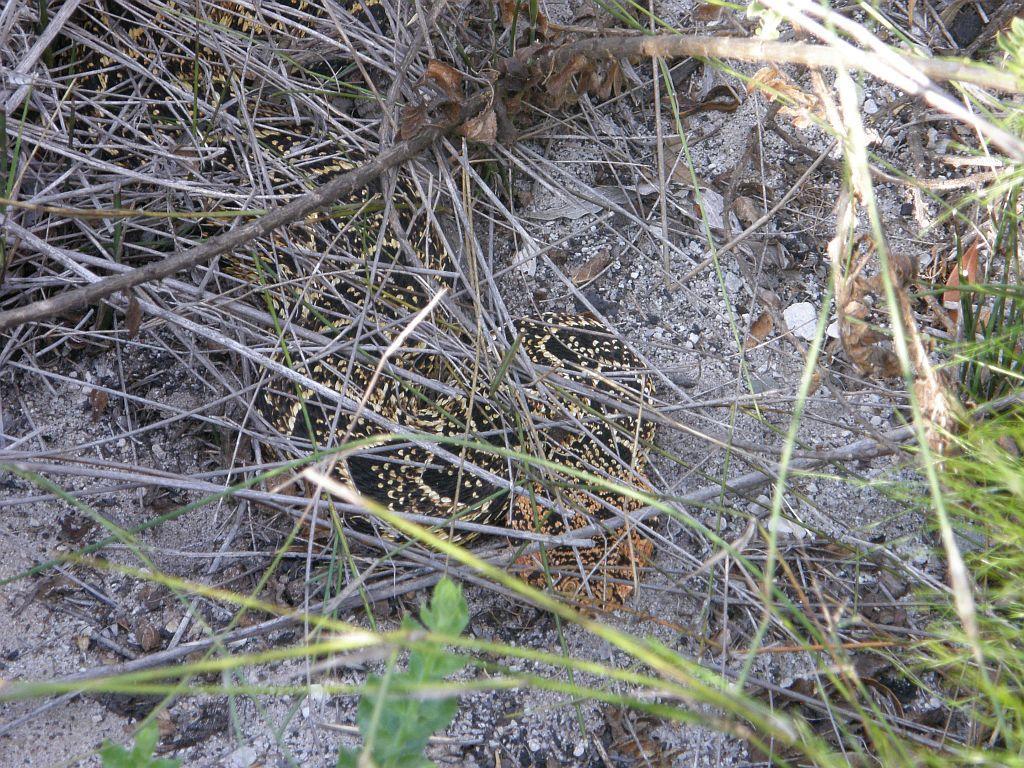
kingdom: Animalia
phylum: Chordata
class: Squamata
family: Viperidae
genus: Bitis
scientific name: Bitis arietans
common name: Puff adder
